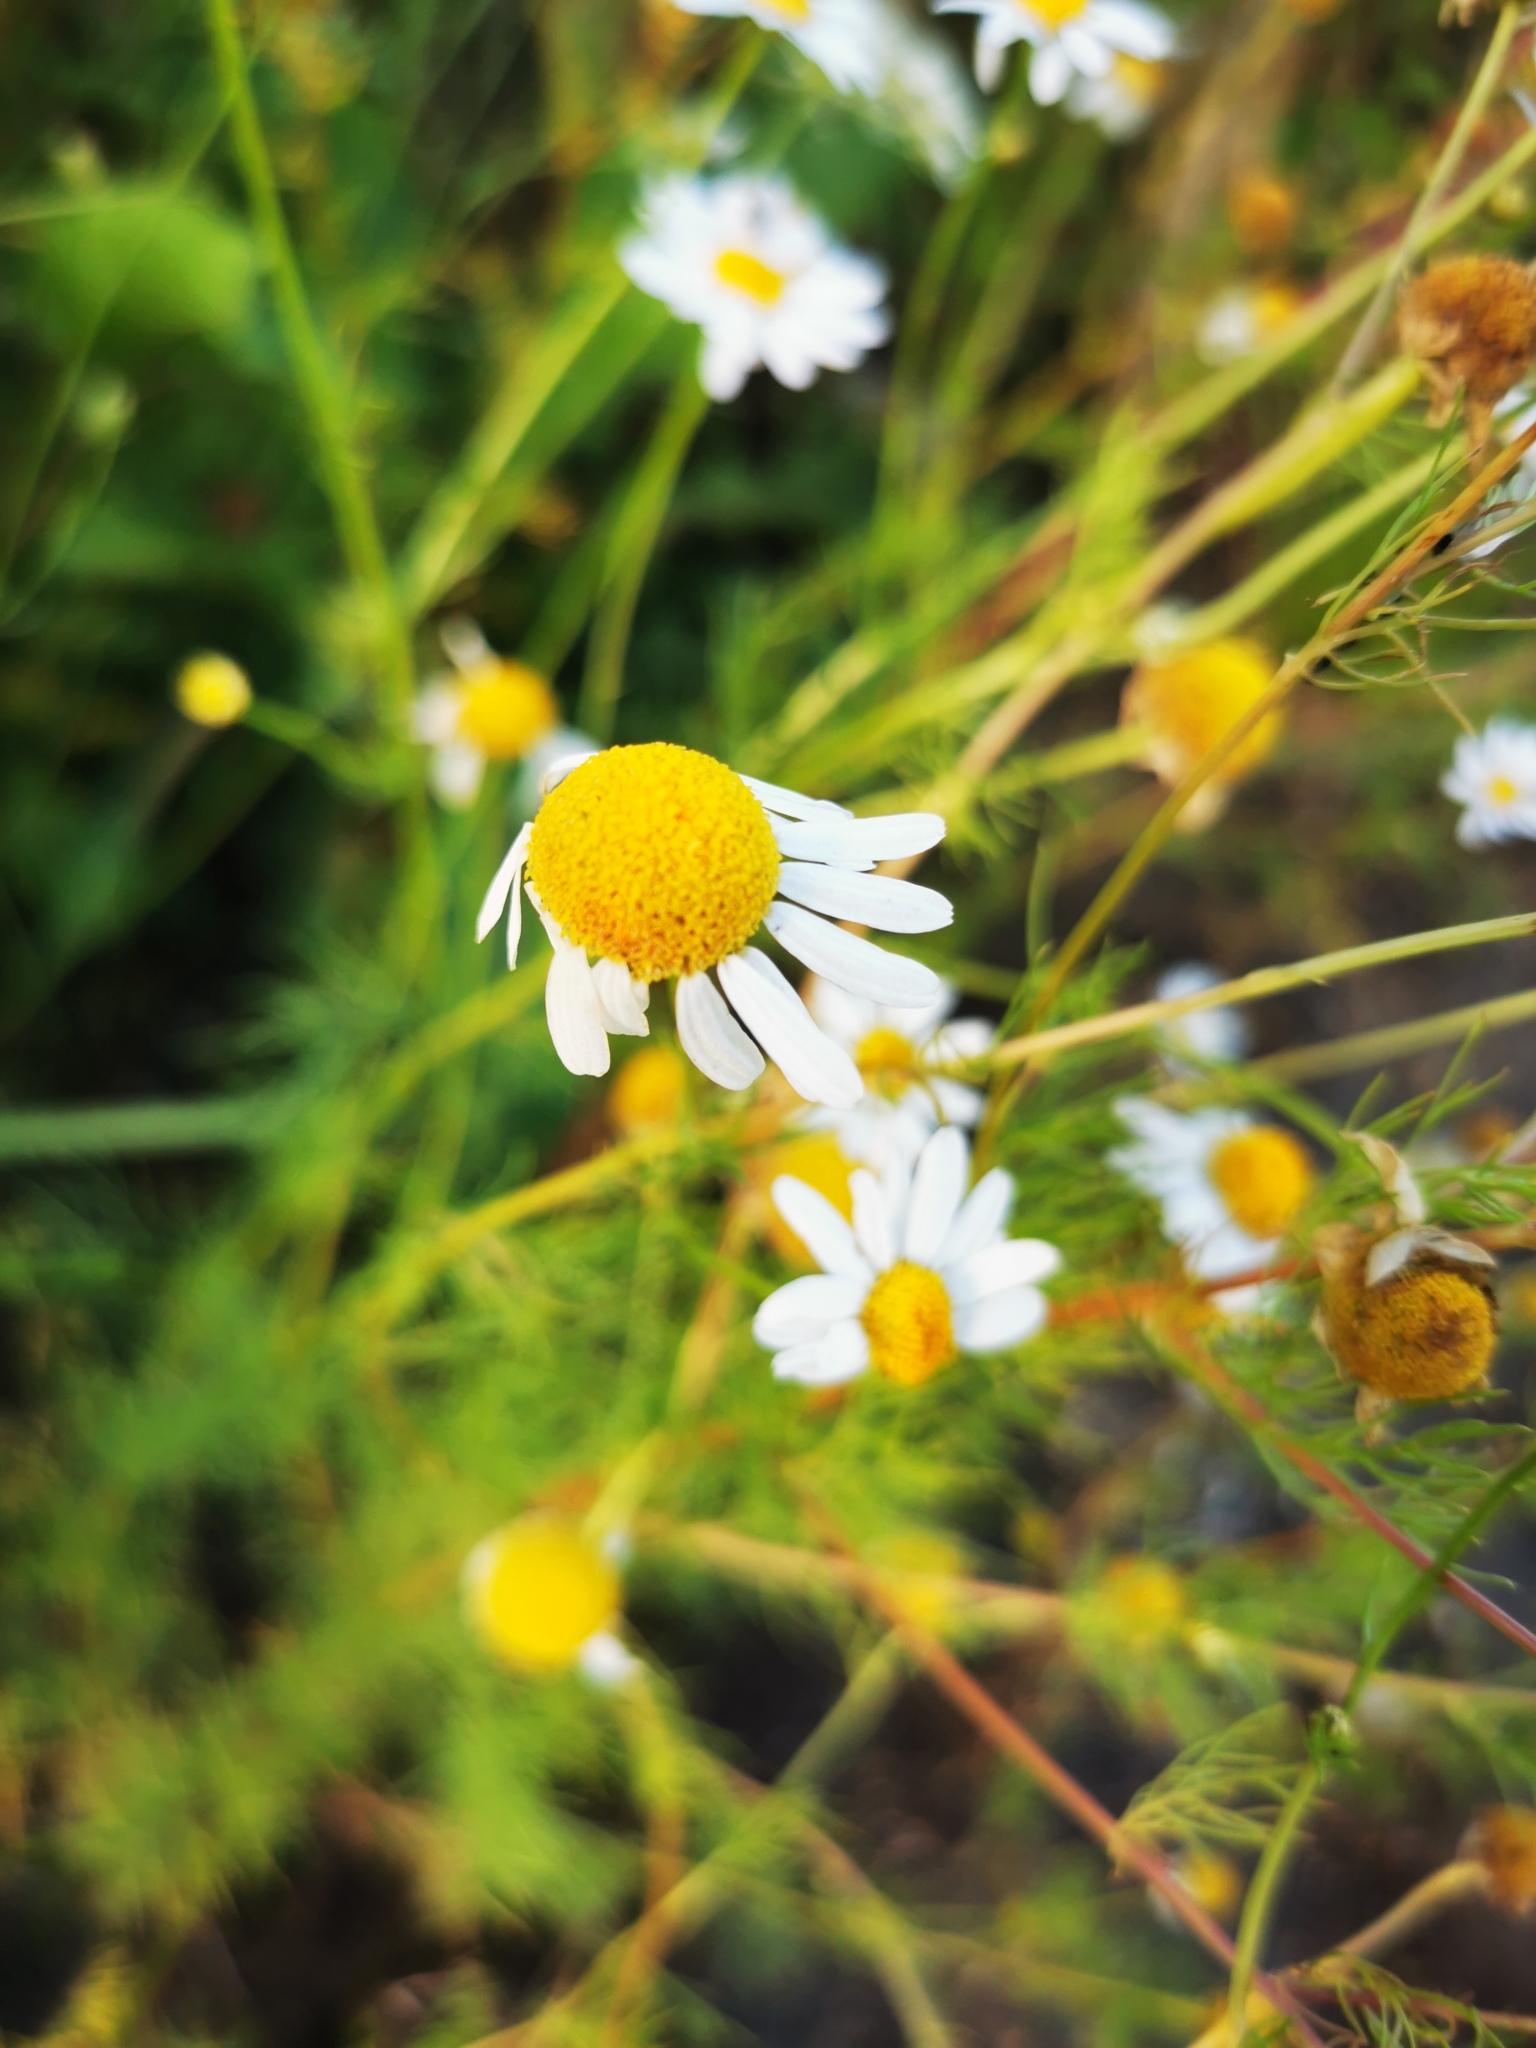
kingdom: Plantae
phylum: Tracheophyta
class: Magnoliopsida
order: Asterales
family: Asteraceae
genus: Tripleurospermum
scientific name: Tripleurospermum inodorum
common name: Scentless mayweed
